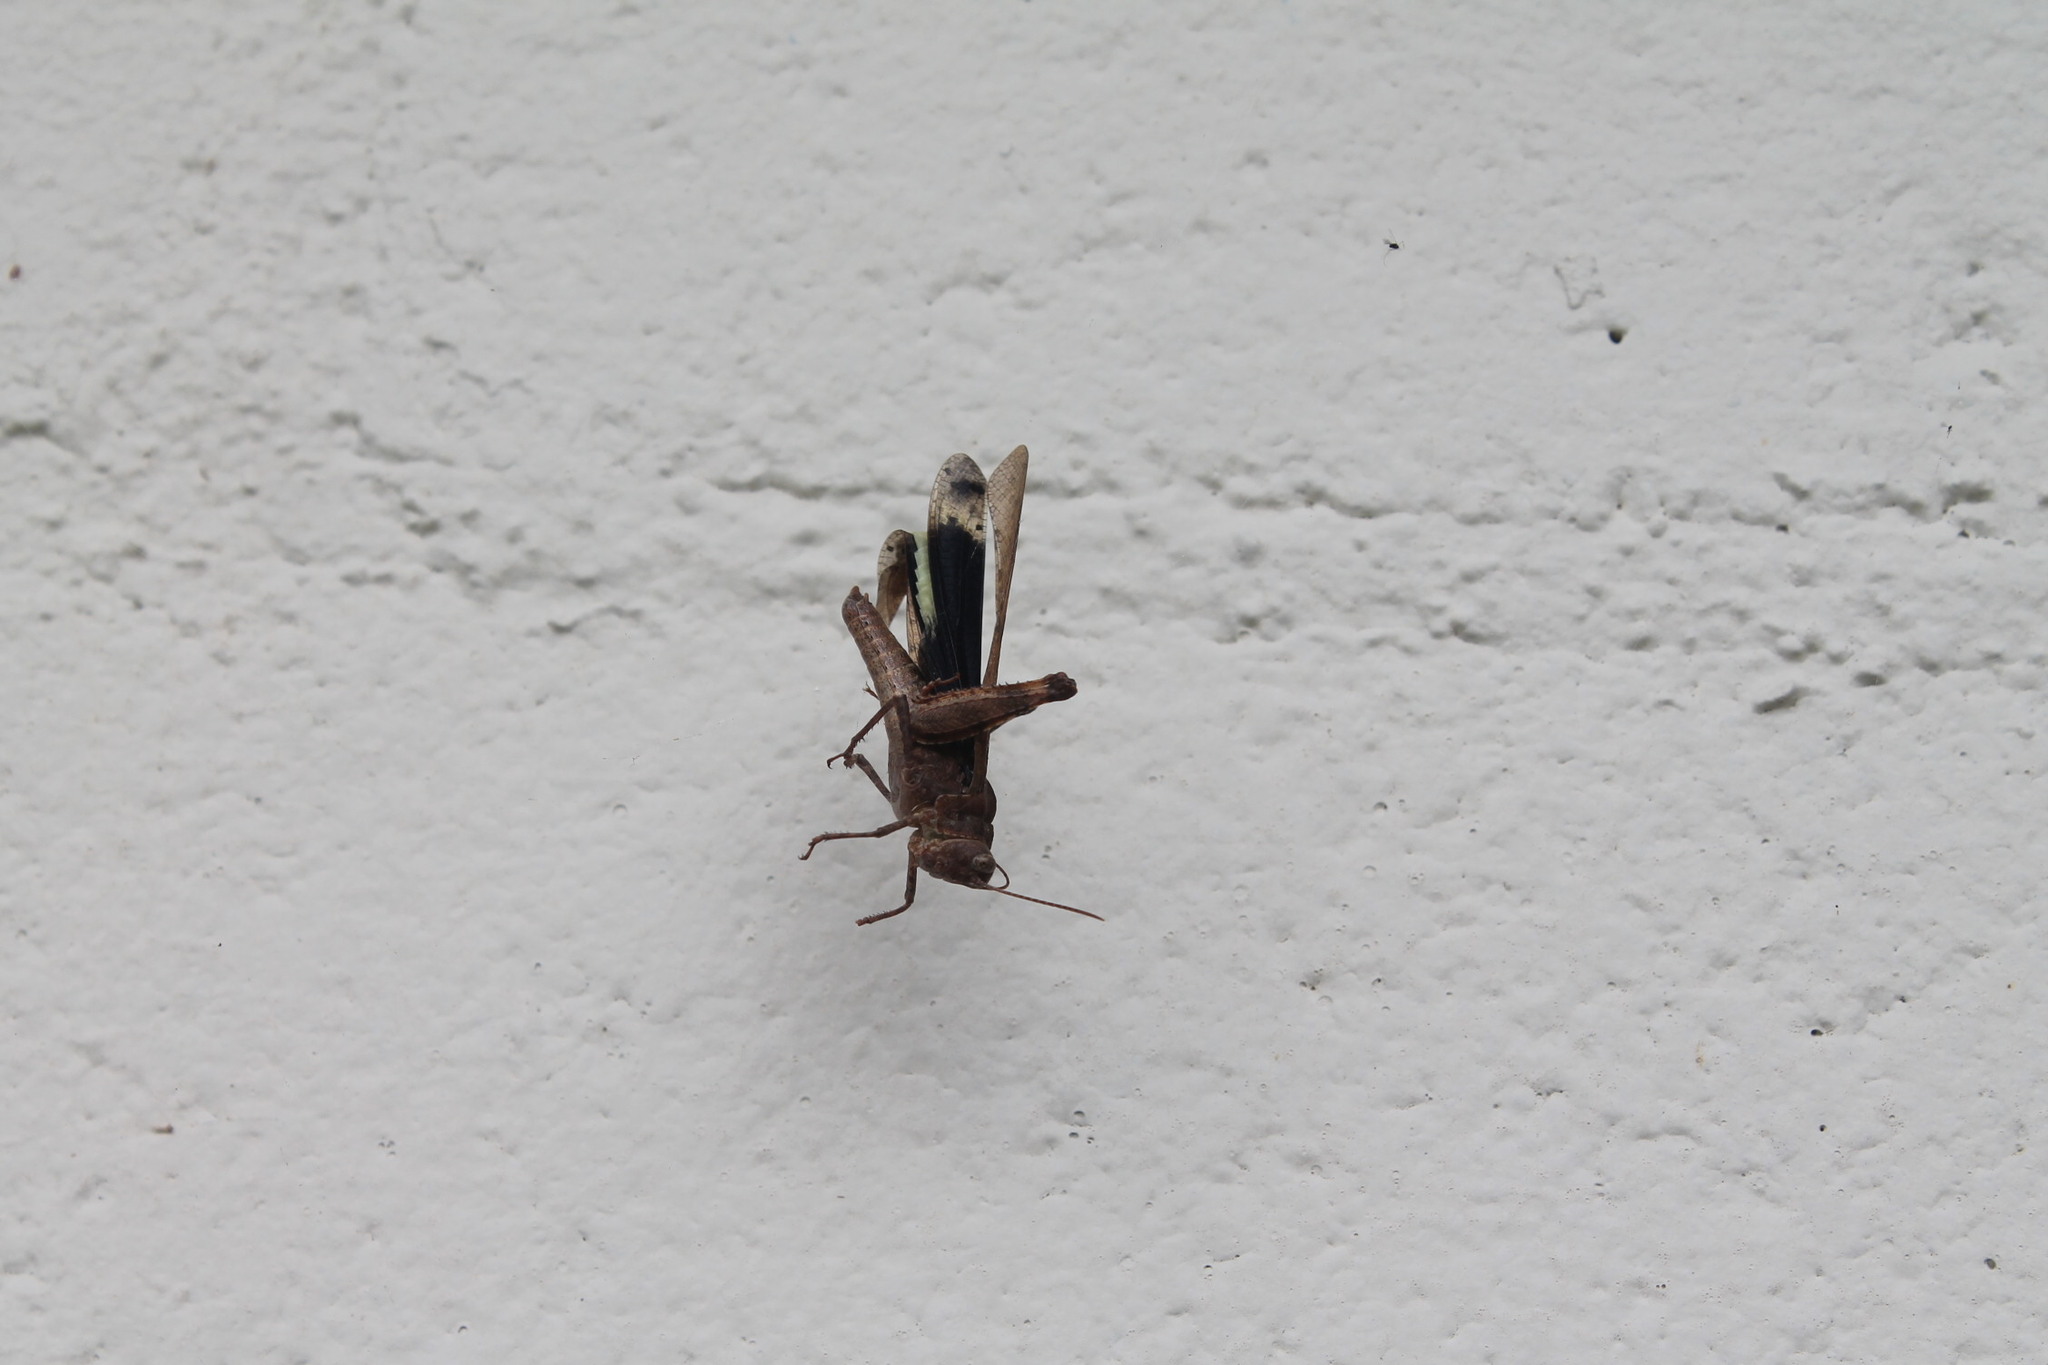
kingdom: Animalia
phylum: Arthropoda
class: Insecta
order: Orthoptera
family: Acrididae
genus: Dissosteira
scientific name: Dissosteira carolina
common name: Carolina grasshopper
